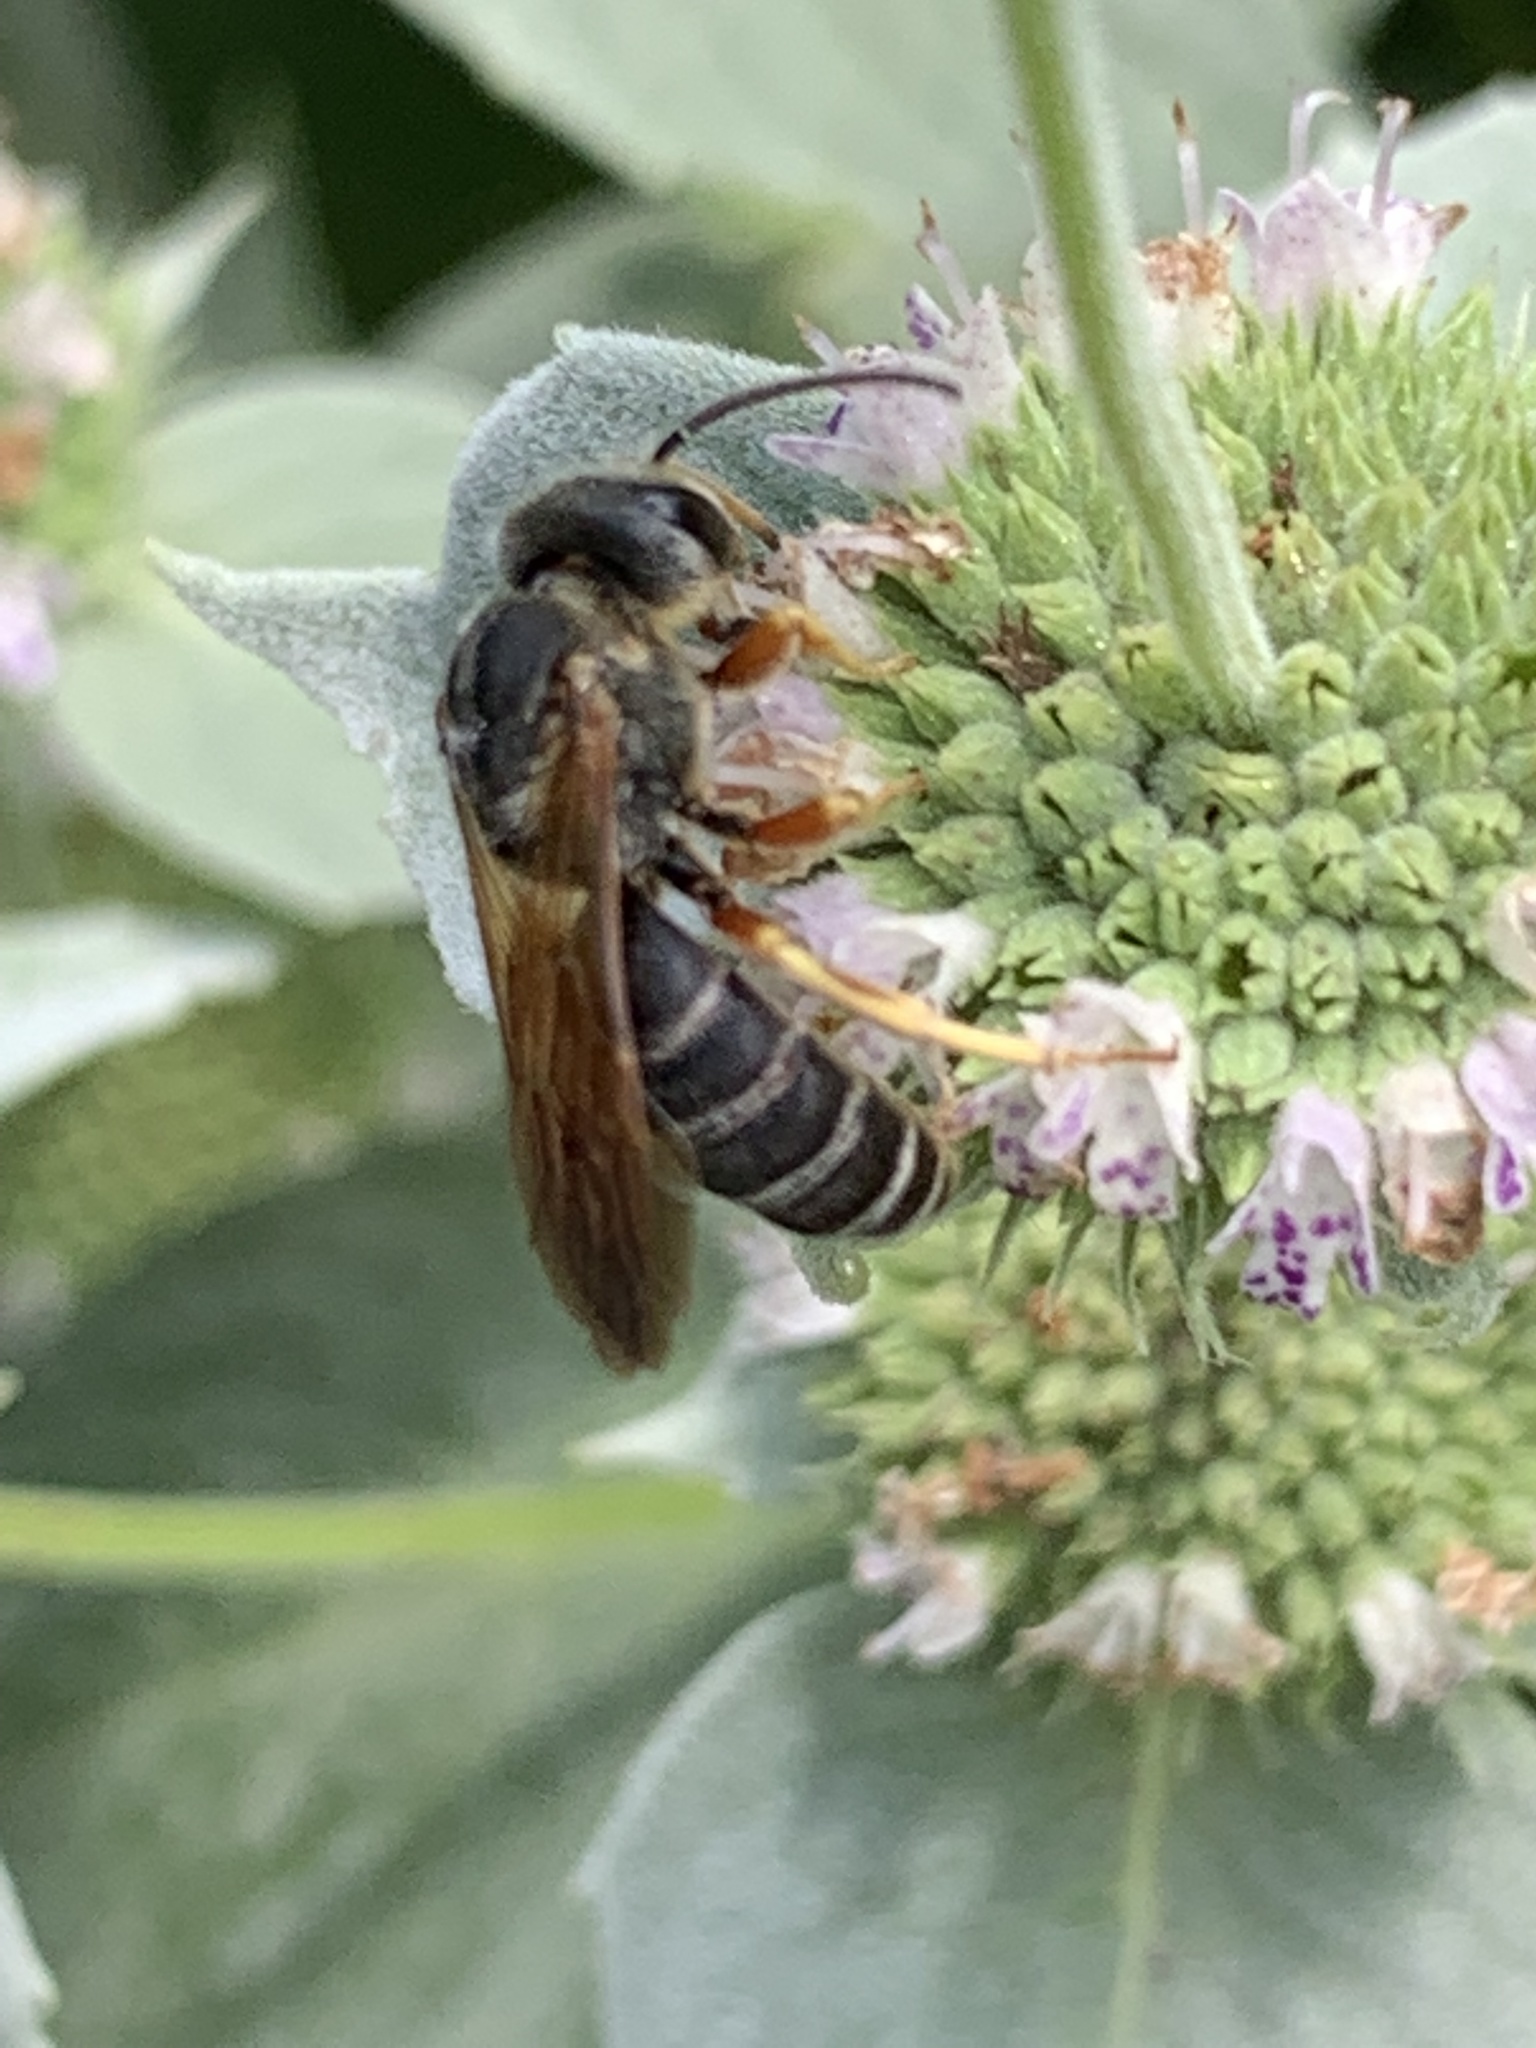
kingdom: Animalia
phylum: Arthropoda
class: Insecta
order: Hymenoptera
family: Halictidae
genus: Halictus
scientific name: Halictus parallelus
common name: Parallel-striped sweat bee
